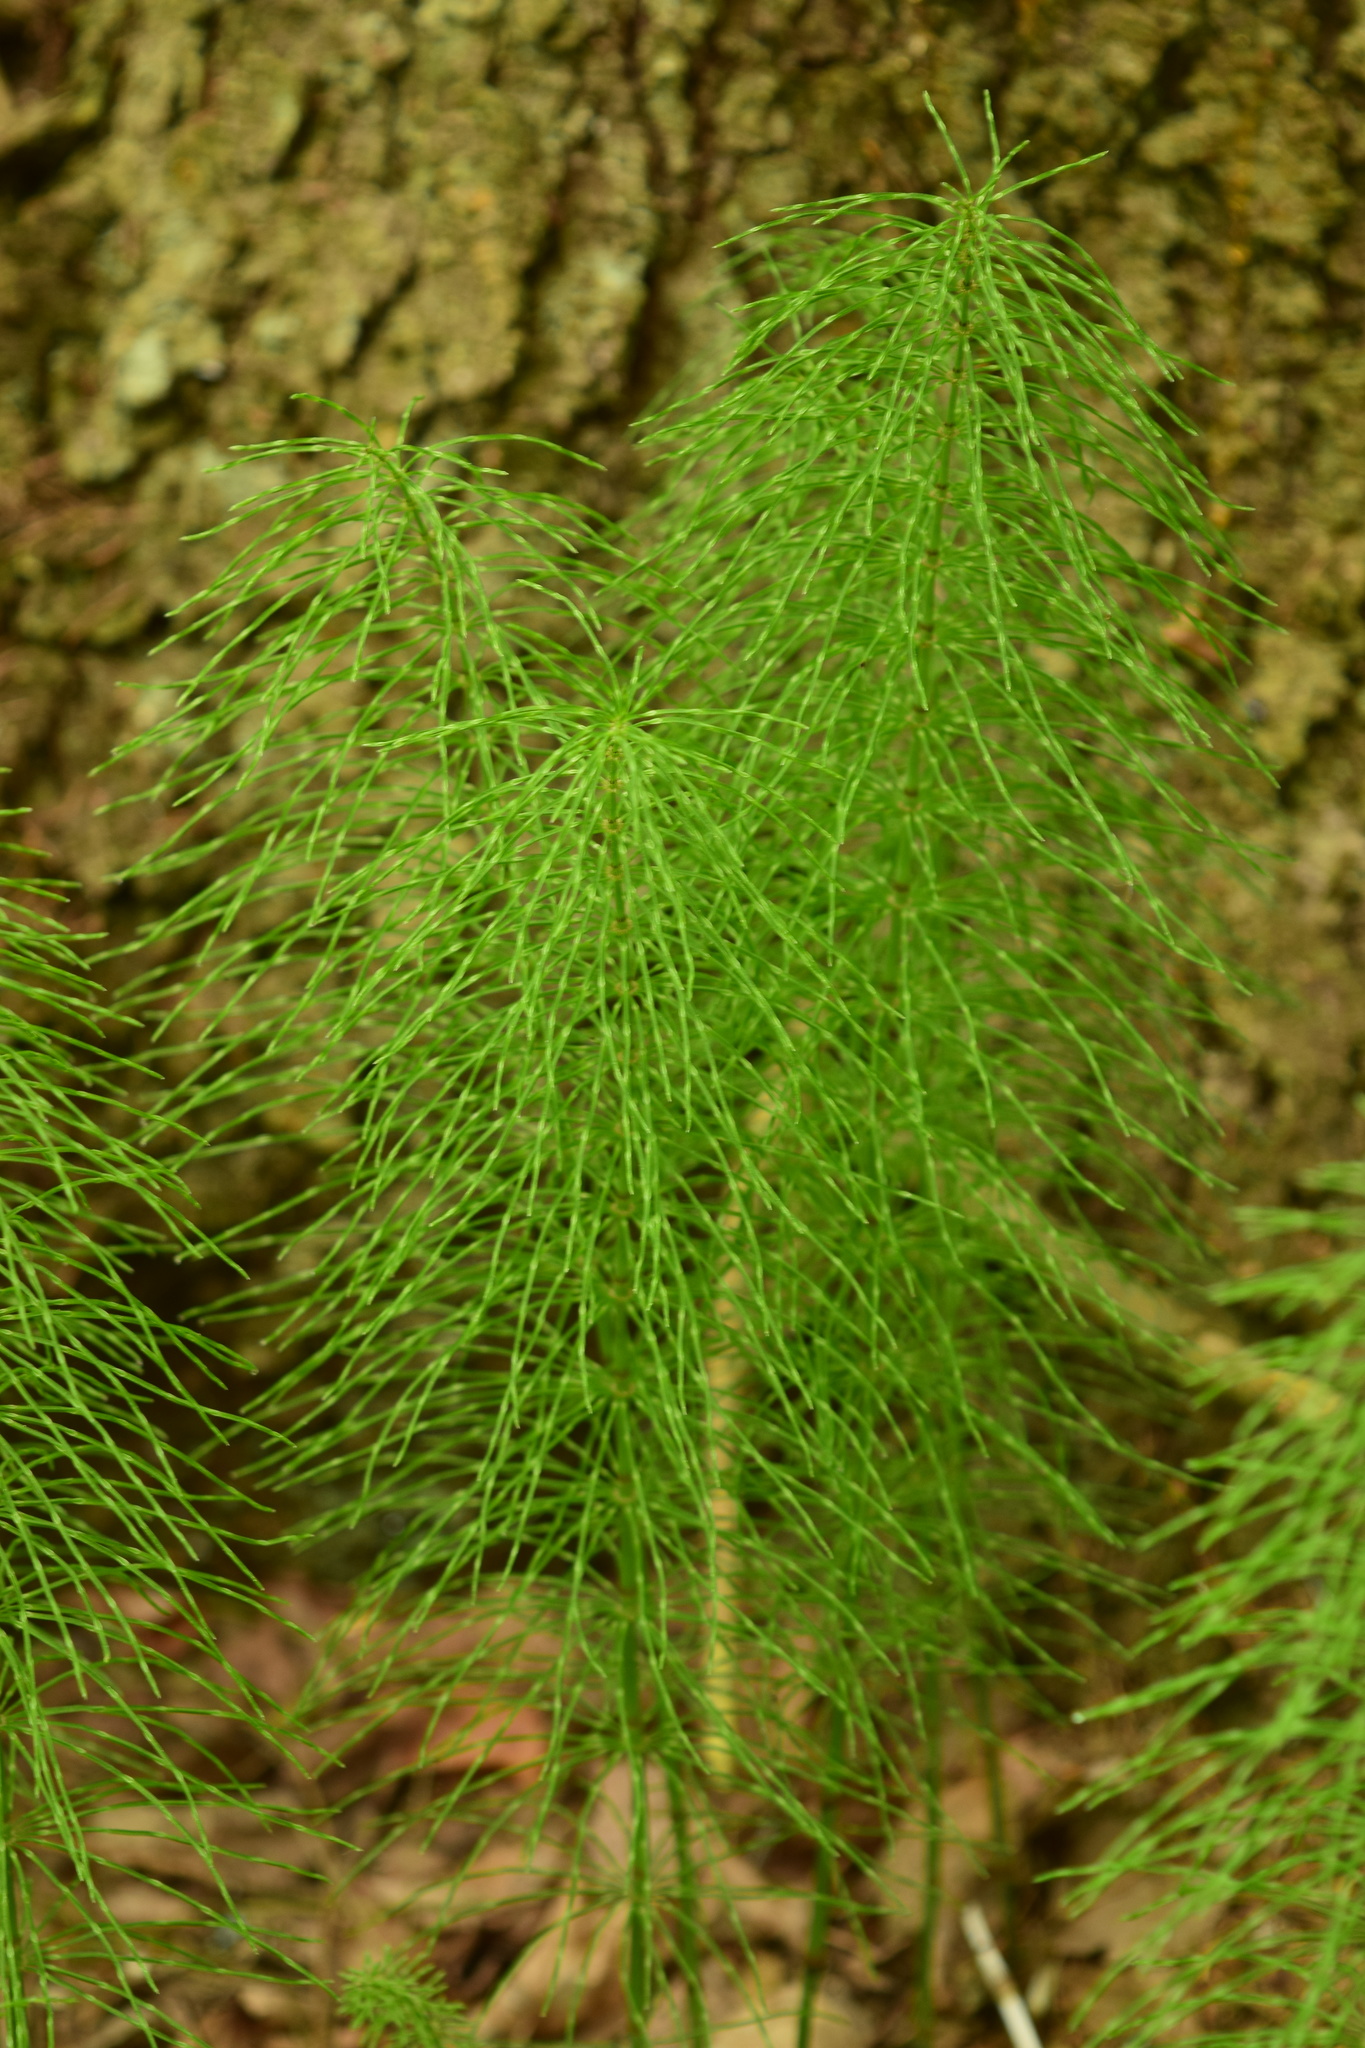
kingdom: Plantae
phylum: Tracheophyta
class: Polypodiopsida
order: Equisetales
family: Equisetaceae
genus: Equisetum
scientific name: Equisetum pratense
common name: Meadow horsetail
